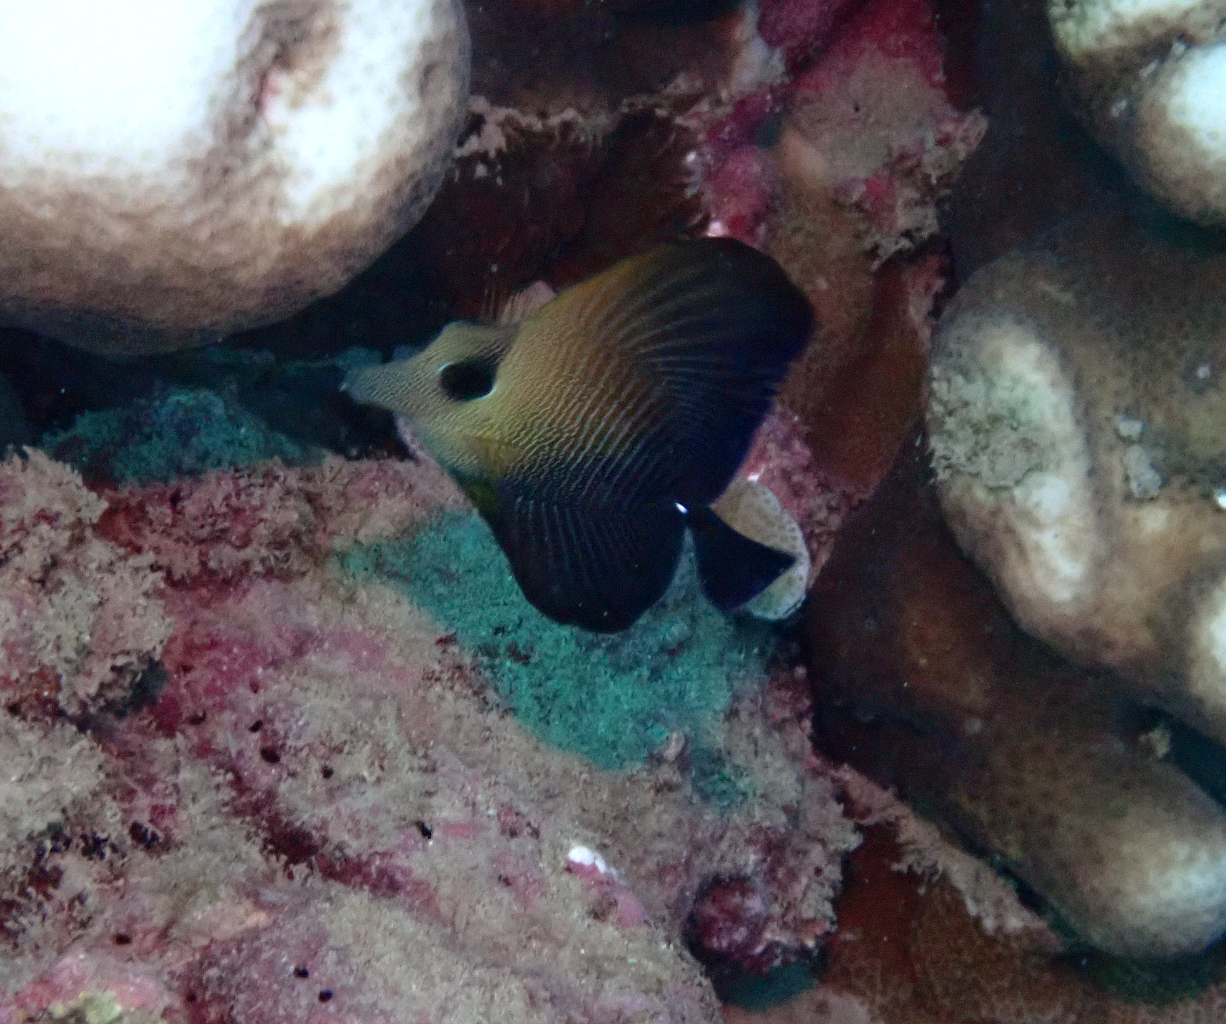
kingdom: Animalia
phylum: Chordata
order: Perciformes
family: Acanthuridae
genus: Zebrasoma
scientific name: Zebrasoma scopas
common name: Twotone tang
